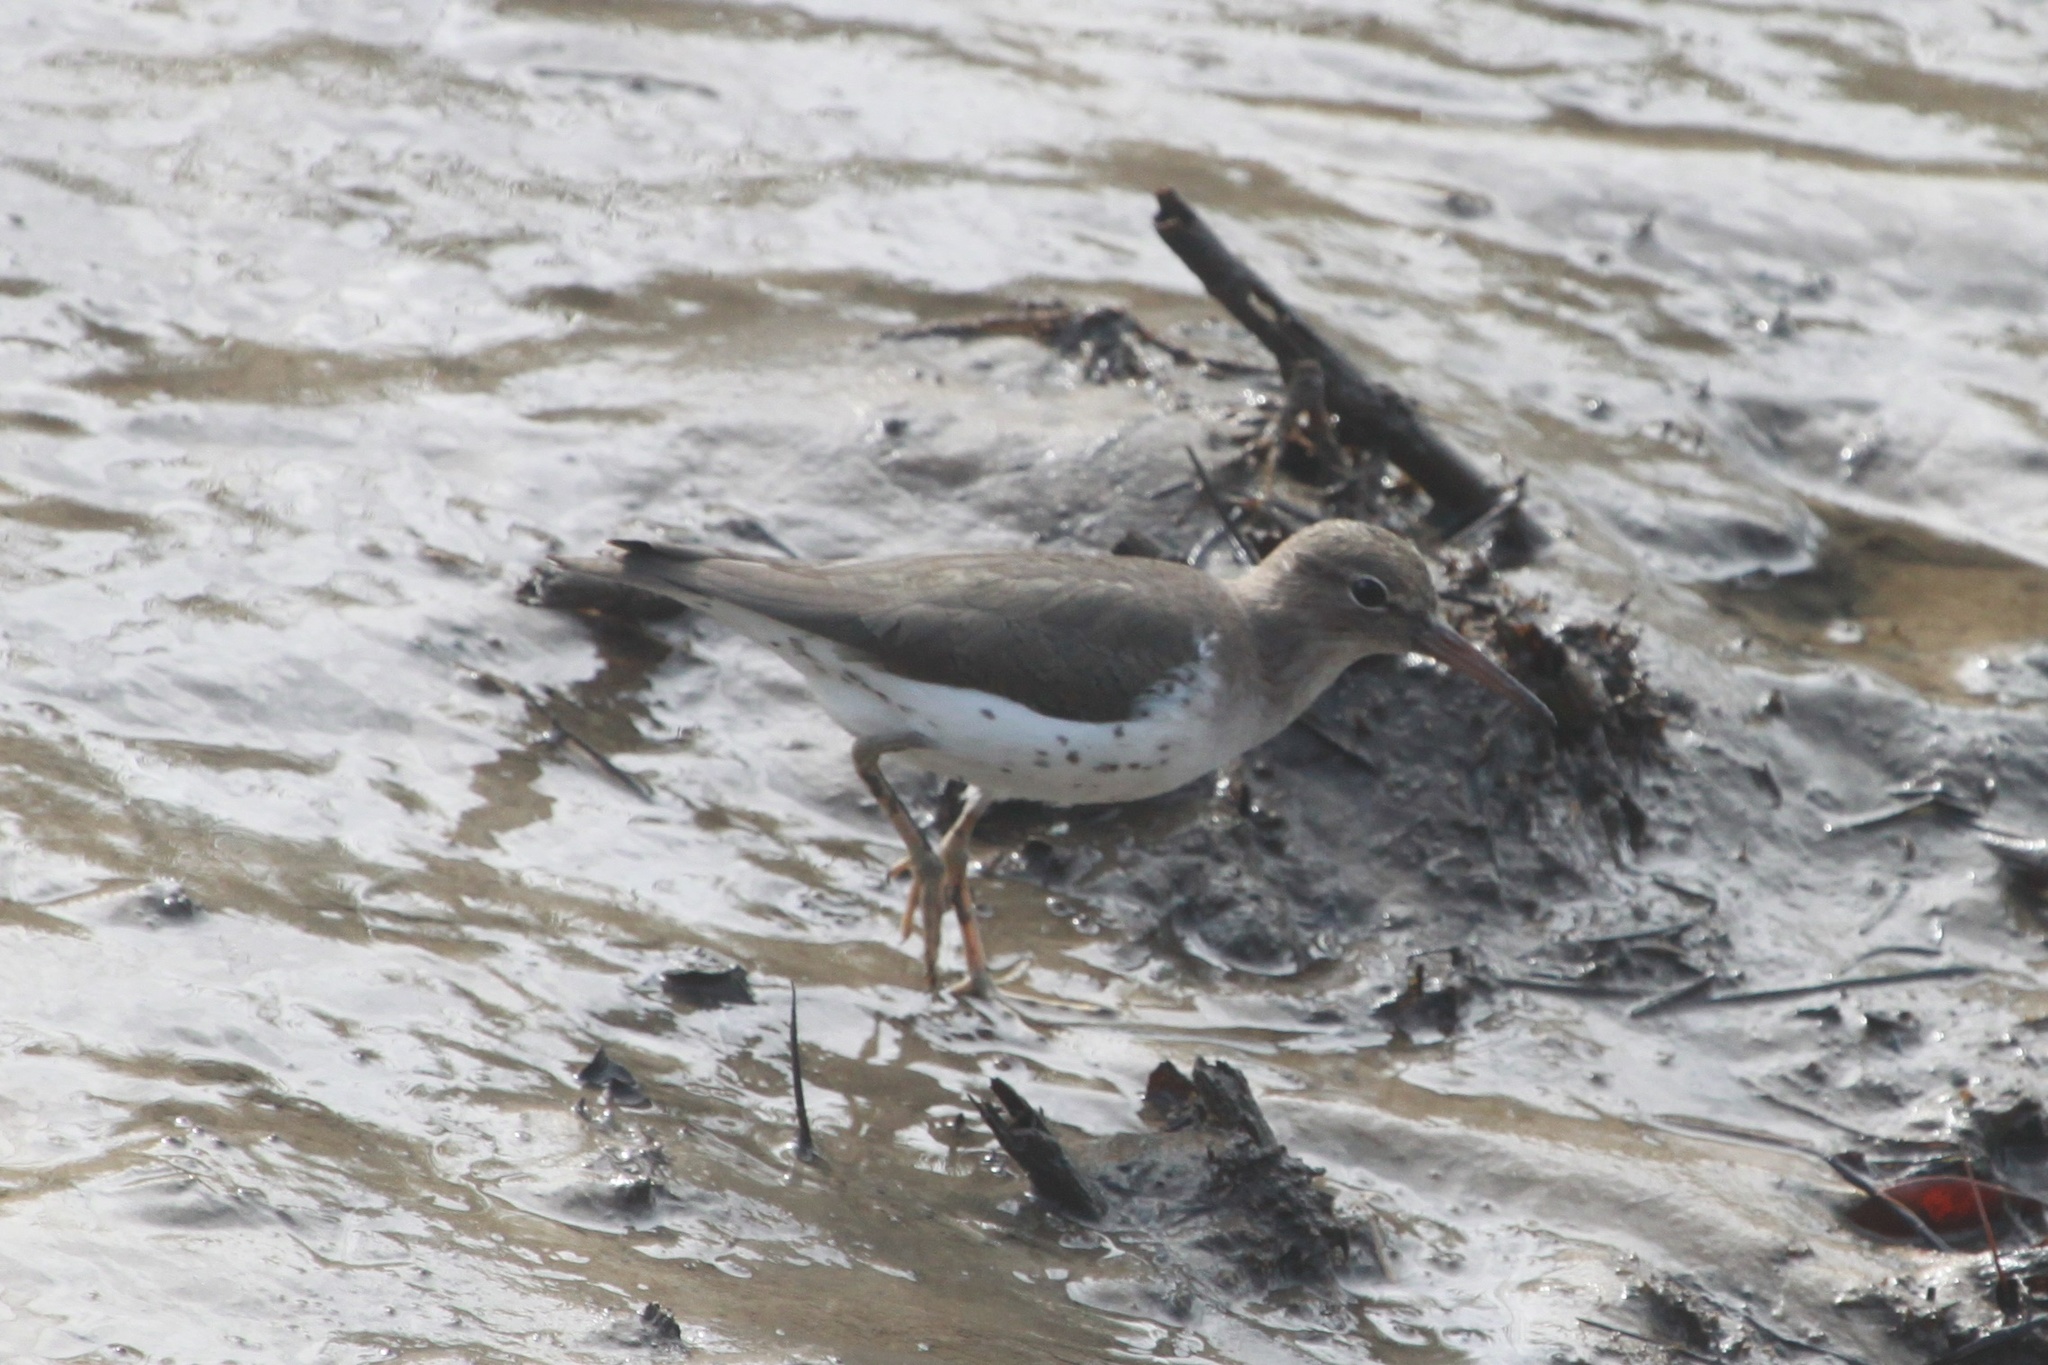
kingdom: Animalia
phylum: Chordata
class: Aves
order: Charadriiformes
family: Scolopacidae
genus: Actitis
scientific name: Actitis macularius
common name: Spotted sandpiper
